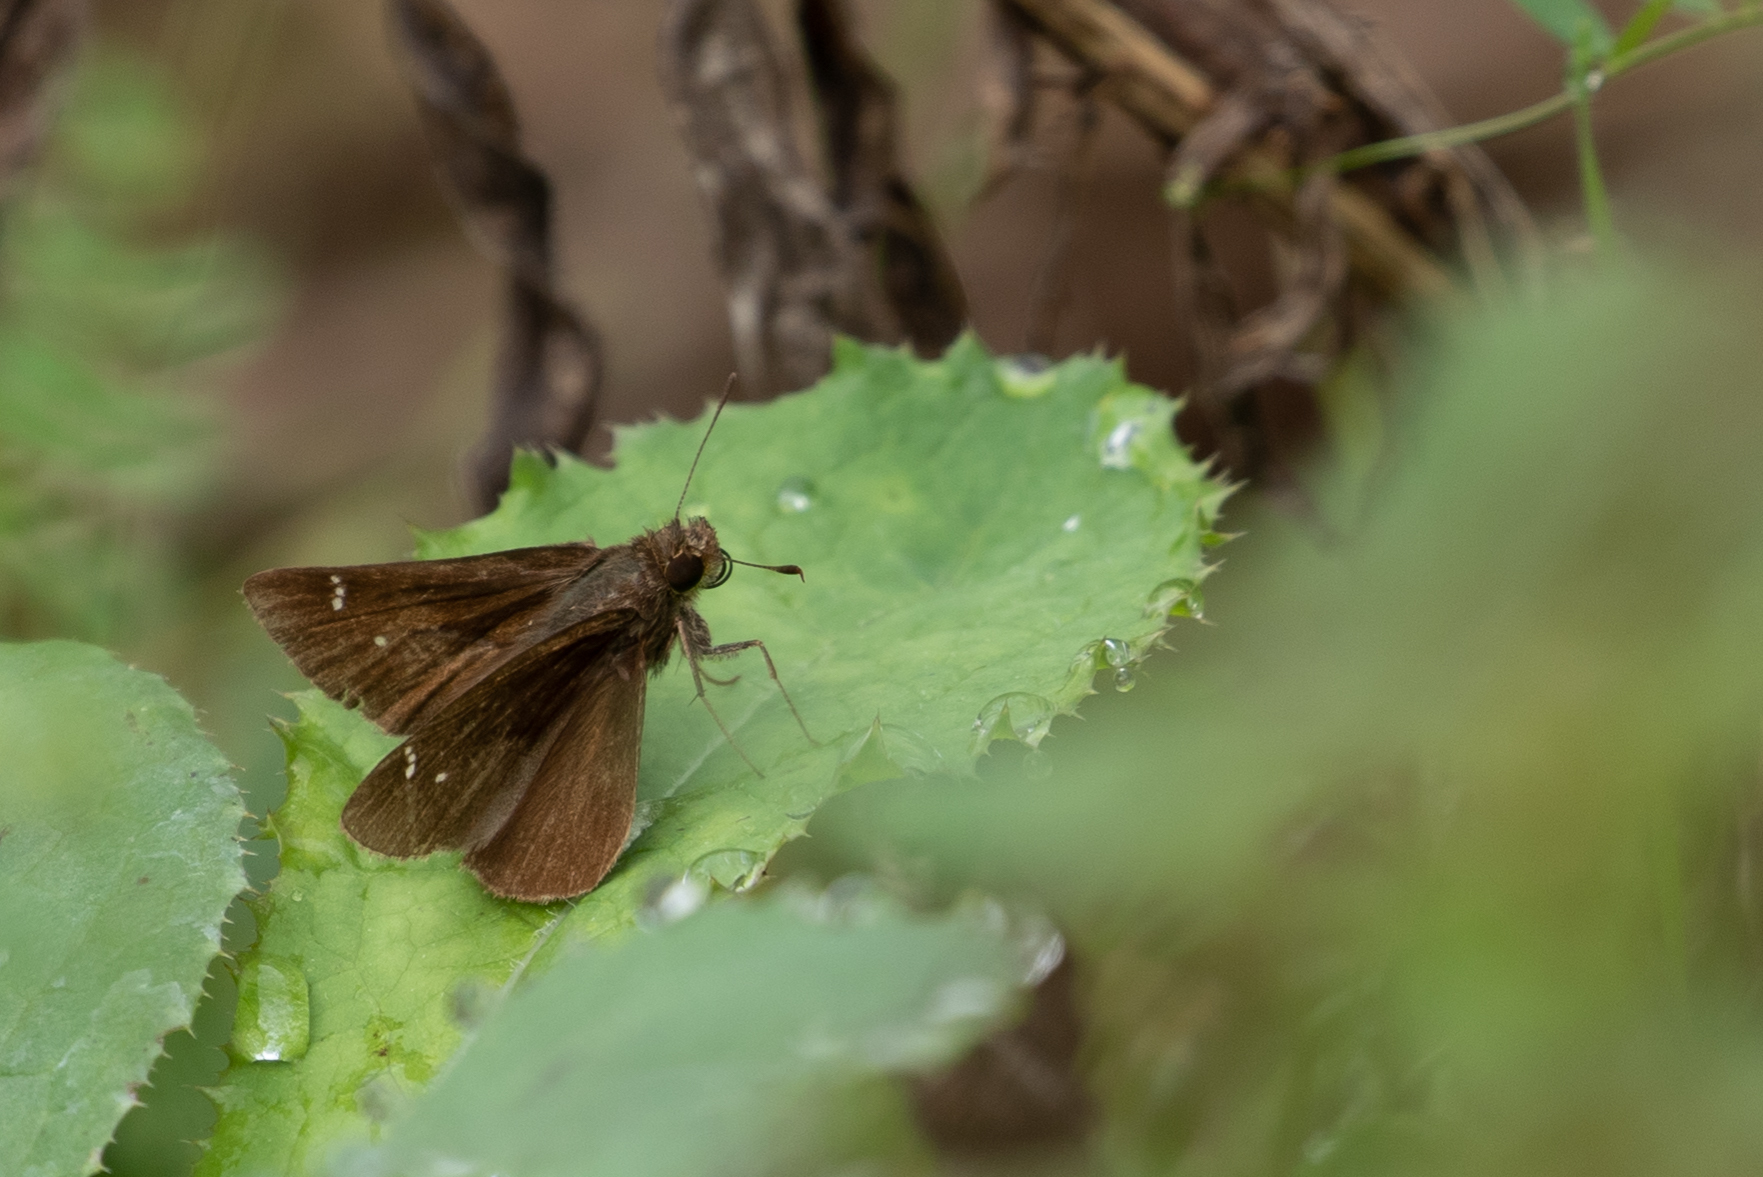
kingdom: Animalia
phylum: Arthropoda
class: Insecta
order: Lepidoptera
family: Hesperiidae
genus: Lerema
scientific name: Lerema accius
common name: Clouded skipper
